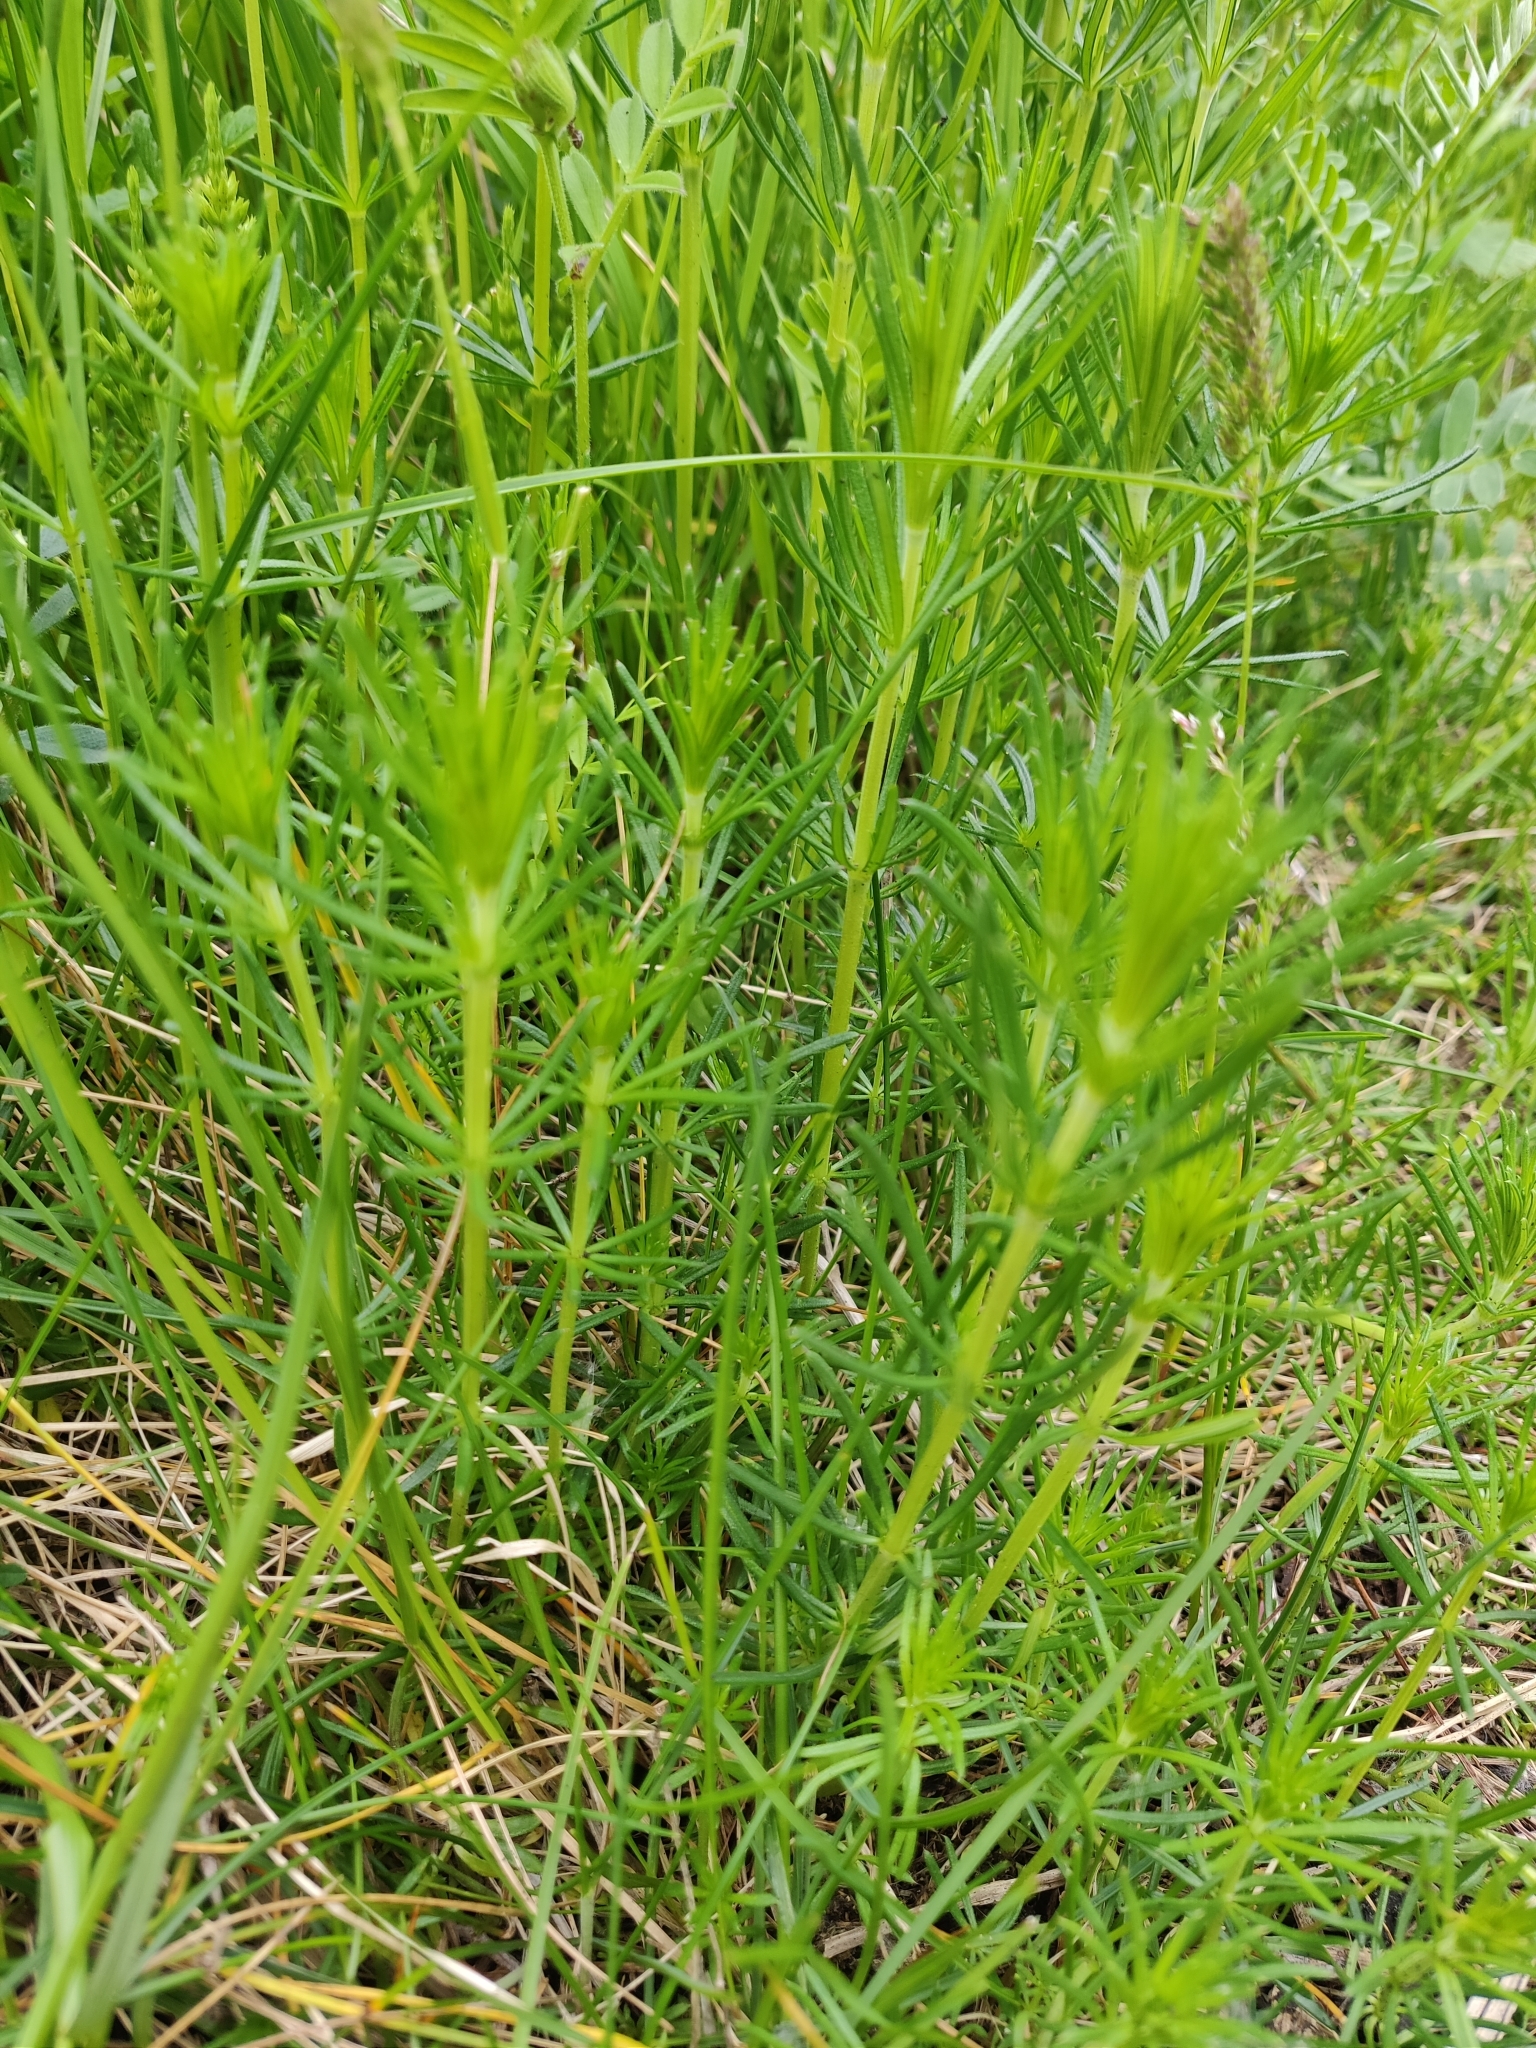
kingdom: Plantae
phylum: Tracheophyta
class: Magnoliopsida
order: Gentianales
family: Rubiaceae
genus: Galium
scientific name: Galium verum
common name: Lady's bedstraw
